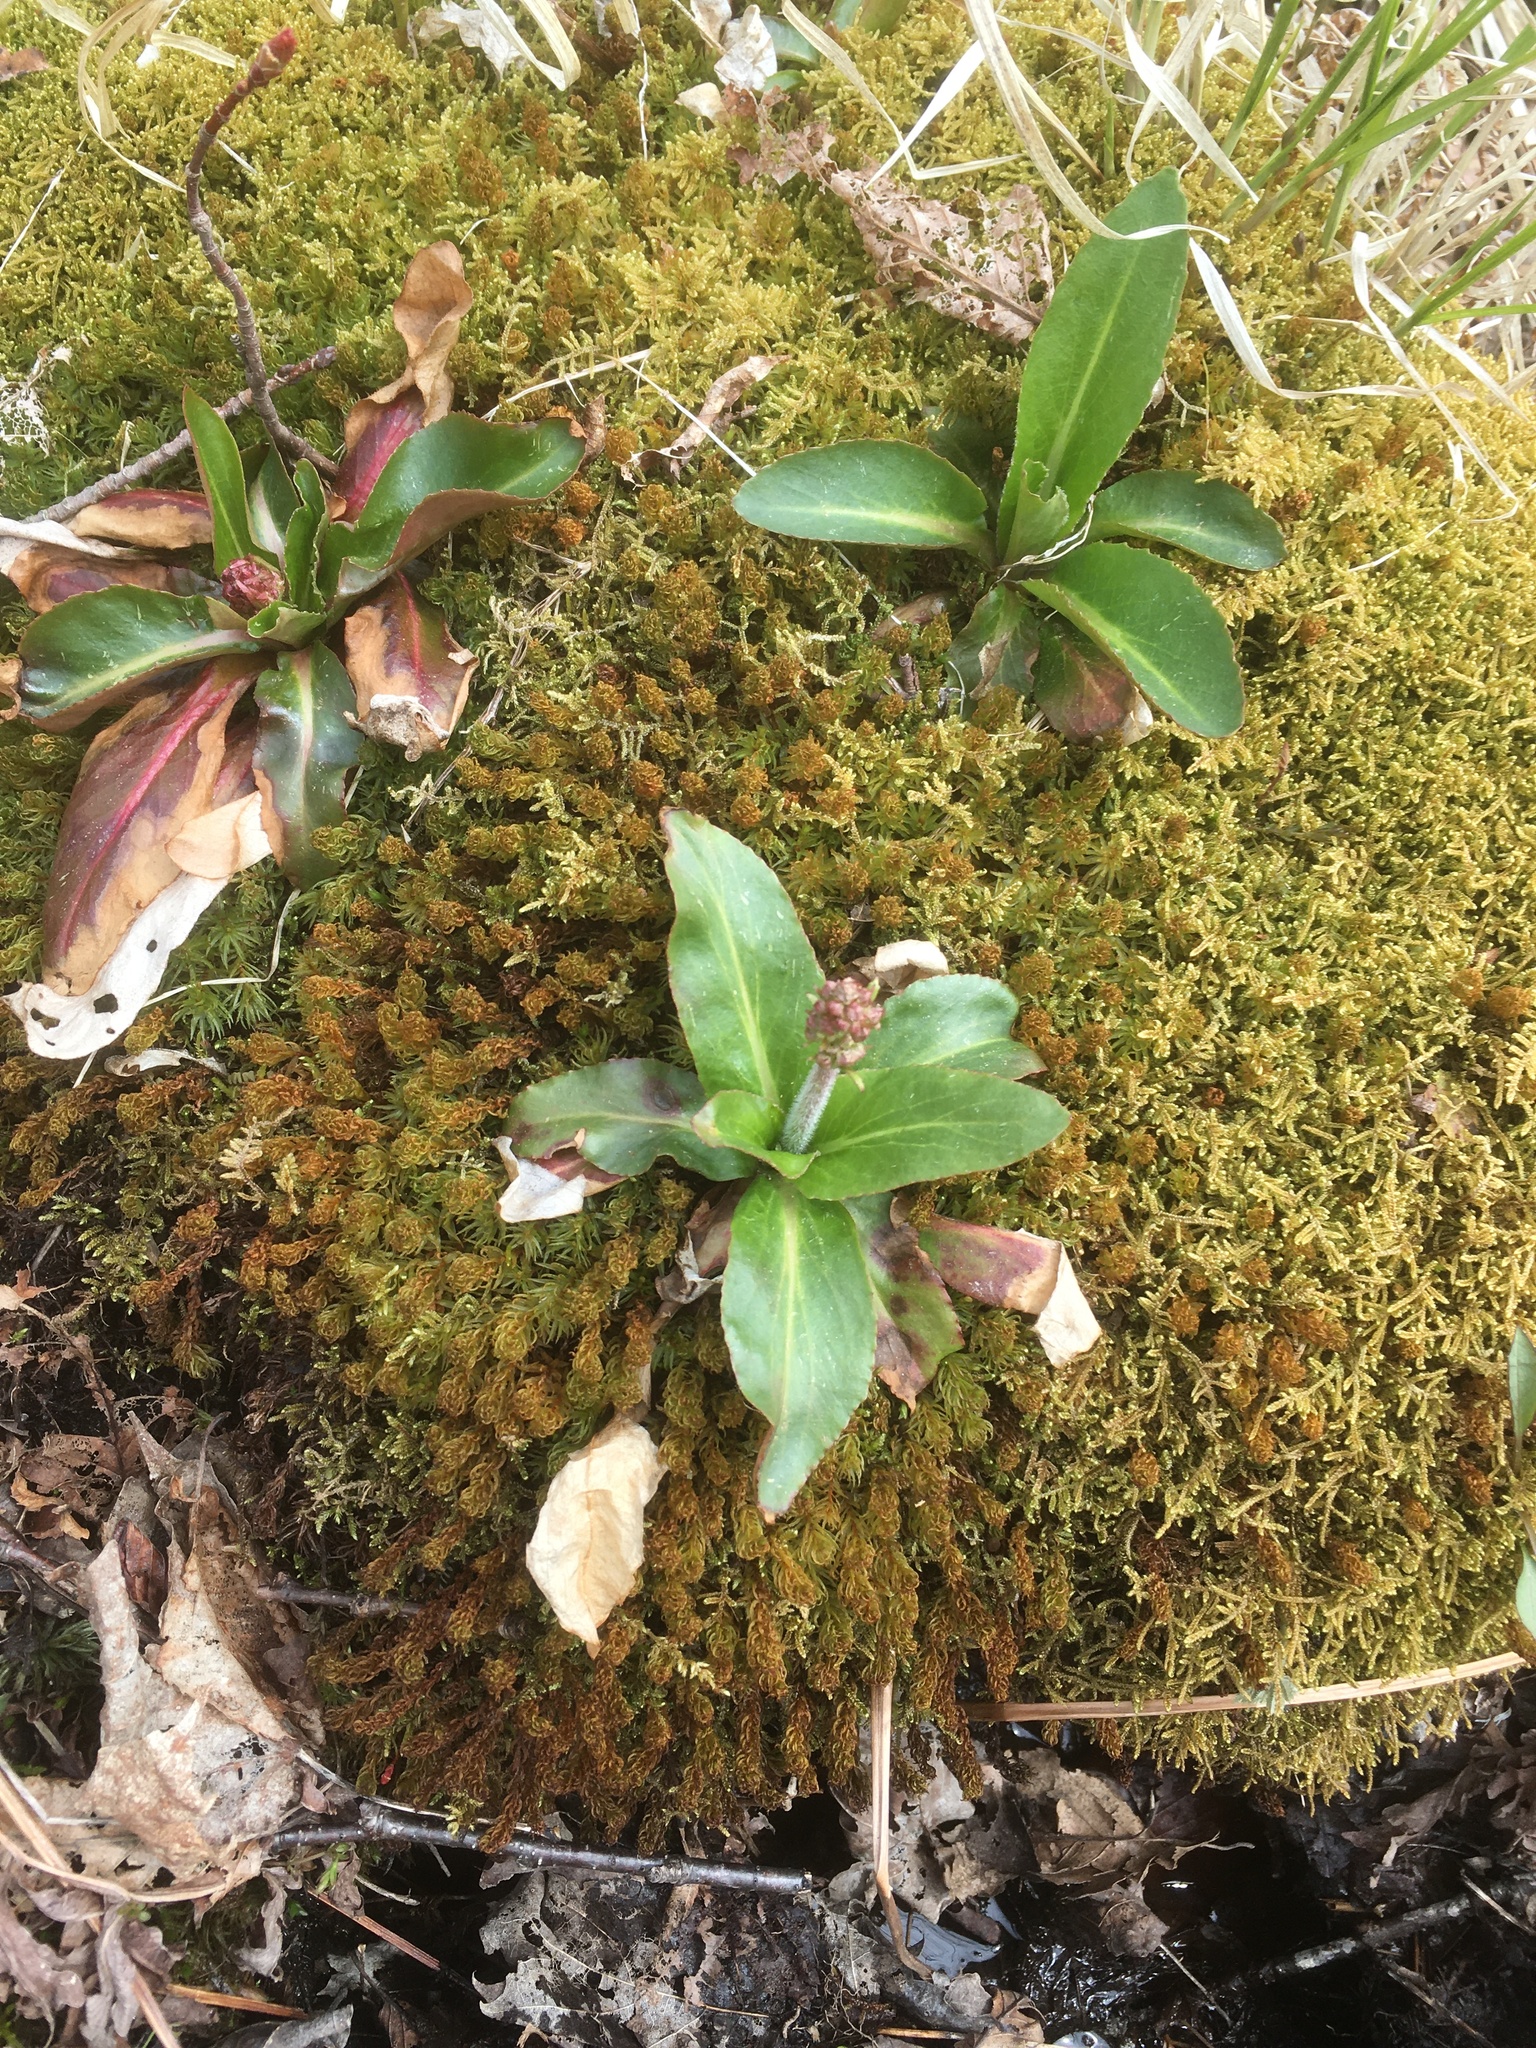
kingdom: Plantae
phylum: Tracheophyta
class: Magnoliopsida
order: Saxifragales
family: Saxifragaceae
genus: Micranthes
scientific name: Micranthes pensylvanica
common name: Marsh saxifrage
